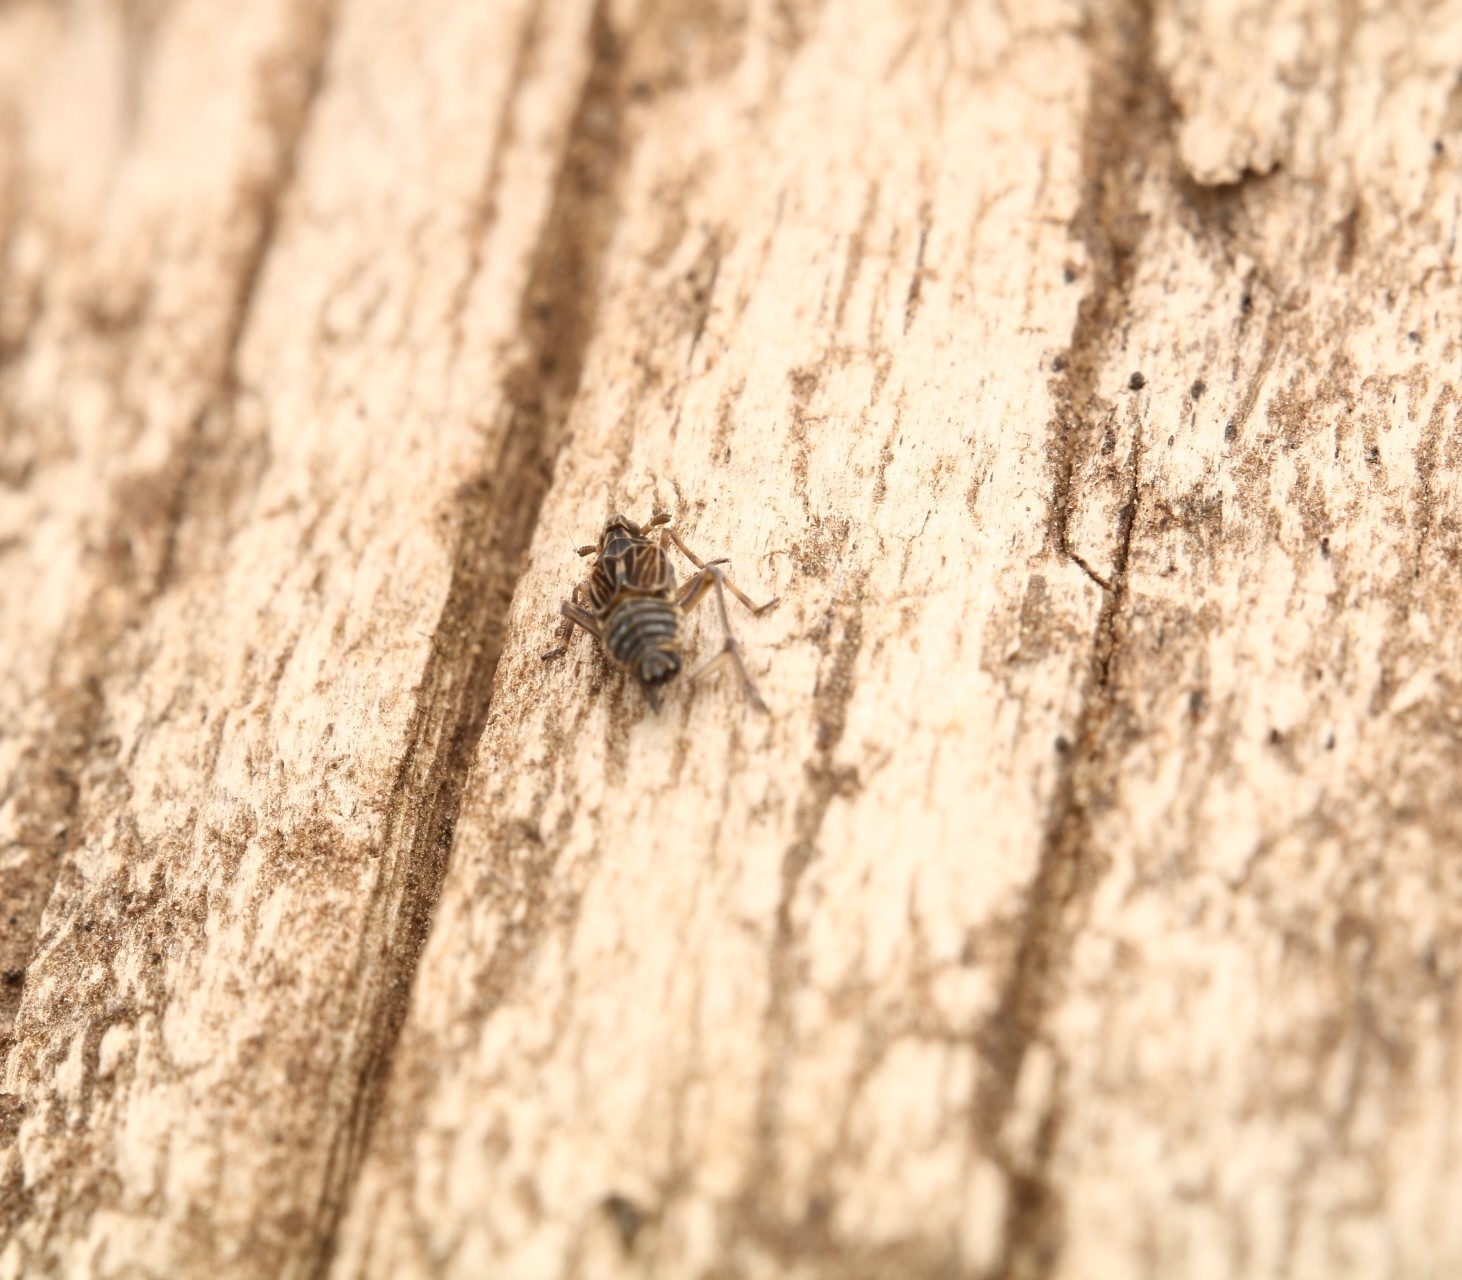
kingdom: Animalia
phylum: Arthropoda
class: Insecta
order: Hemiptera
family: Delphacidae
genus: Megamelus
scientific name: Megamelus davisi
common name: Planthopper
